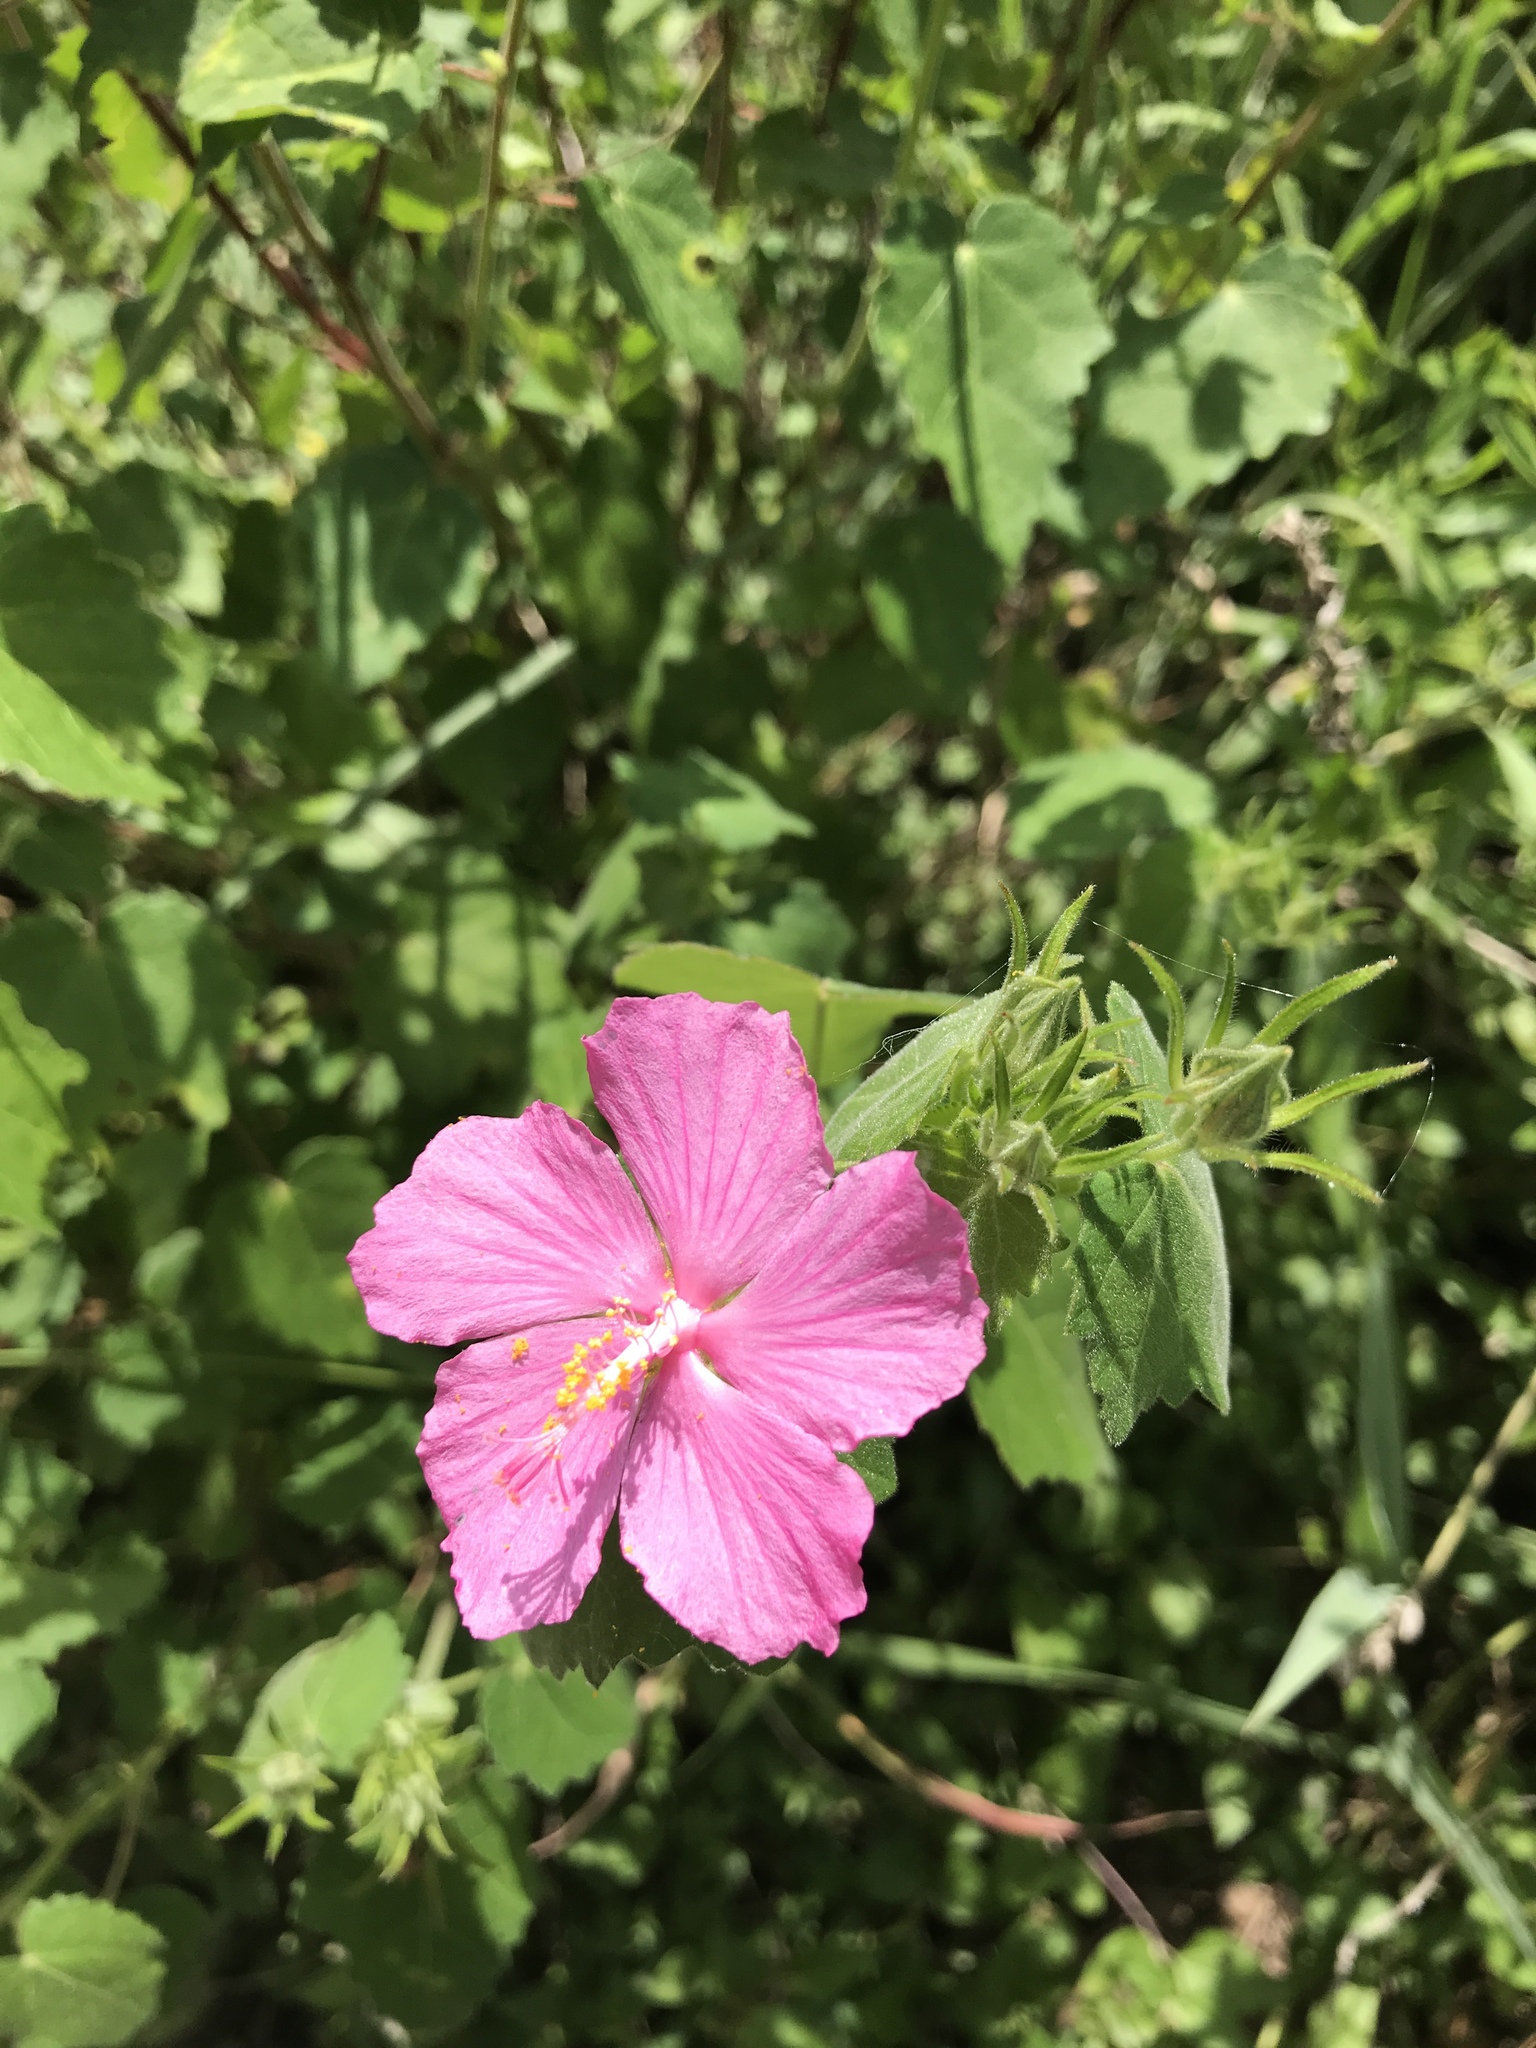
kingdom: Plantae
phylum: Tracheophyta
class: Magnoliopsida
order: Malvales
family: Malvaceae
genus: Pavonia
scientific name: Pavonia lasiopetala
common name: Texas swamp-mallow
